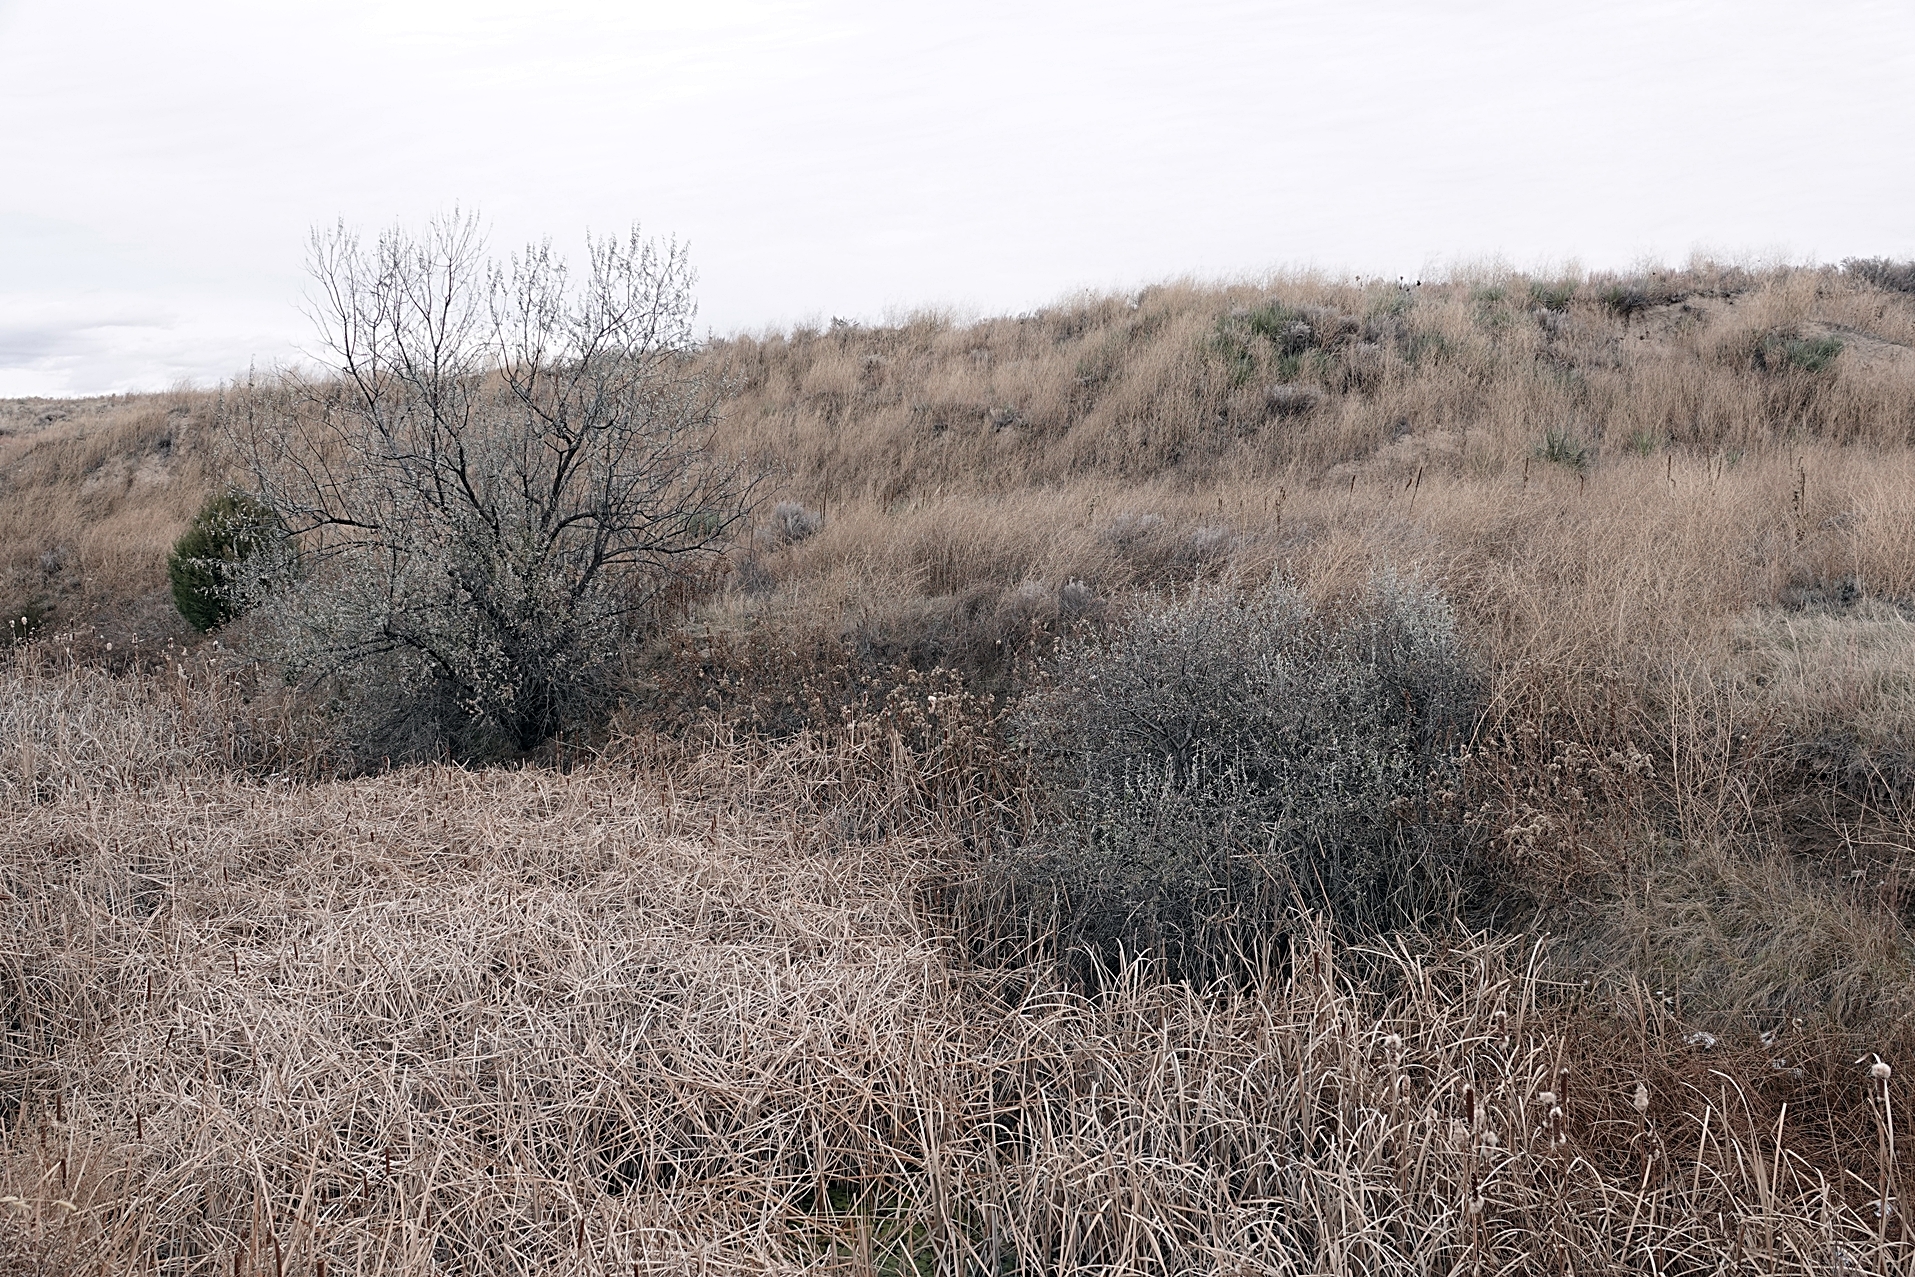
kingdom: Plantae
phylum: Tracheophyta
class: Magnoliopsida
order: Rosales
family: Elaeagnaceae
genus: Elaeagnus
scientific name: Elaeagnus angustifolia
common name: Russian olive
